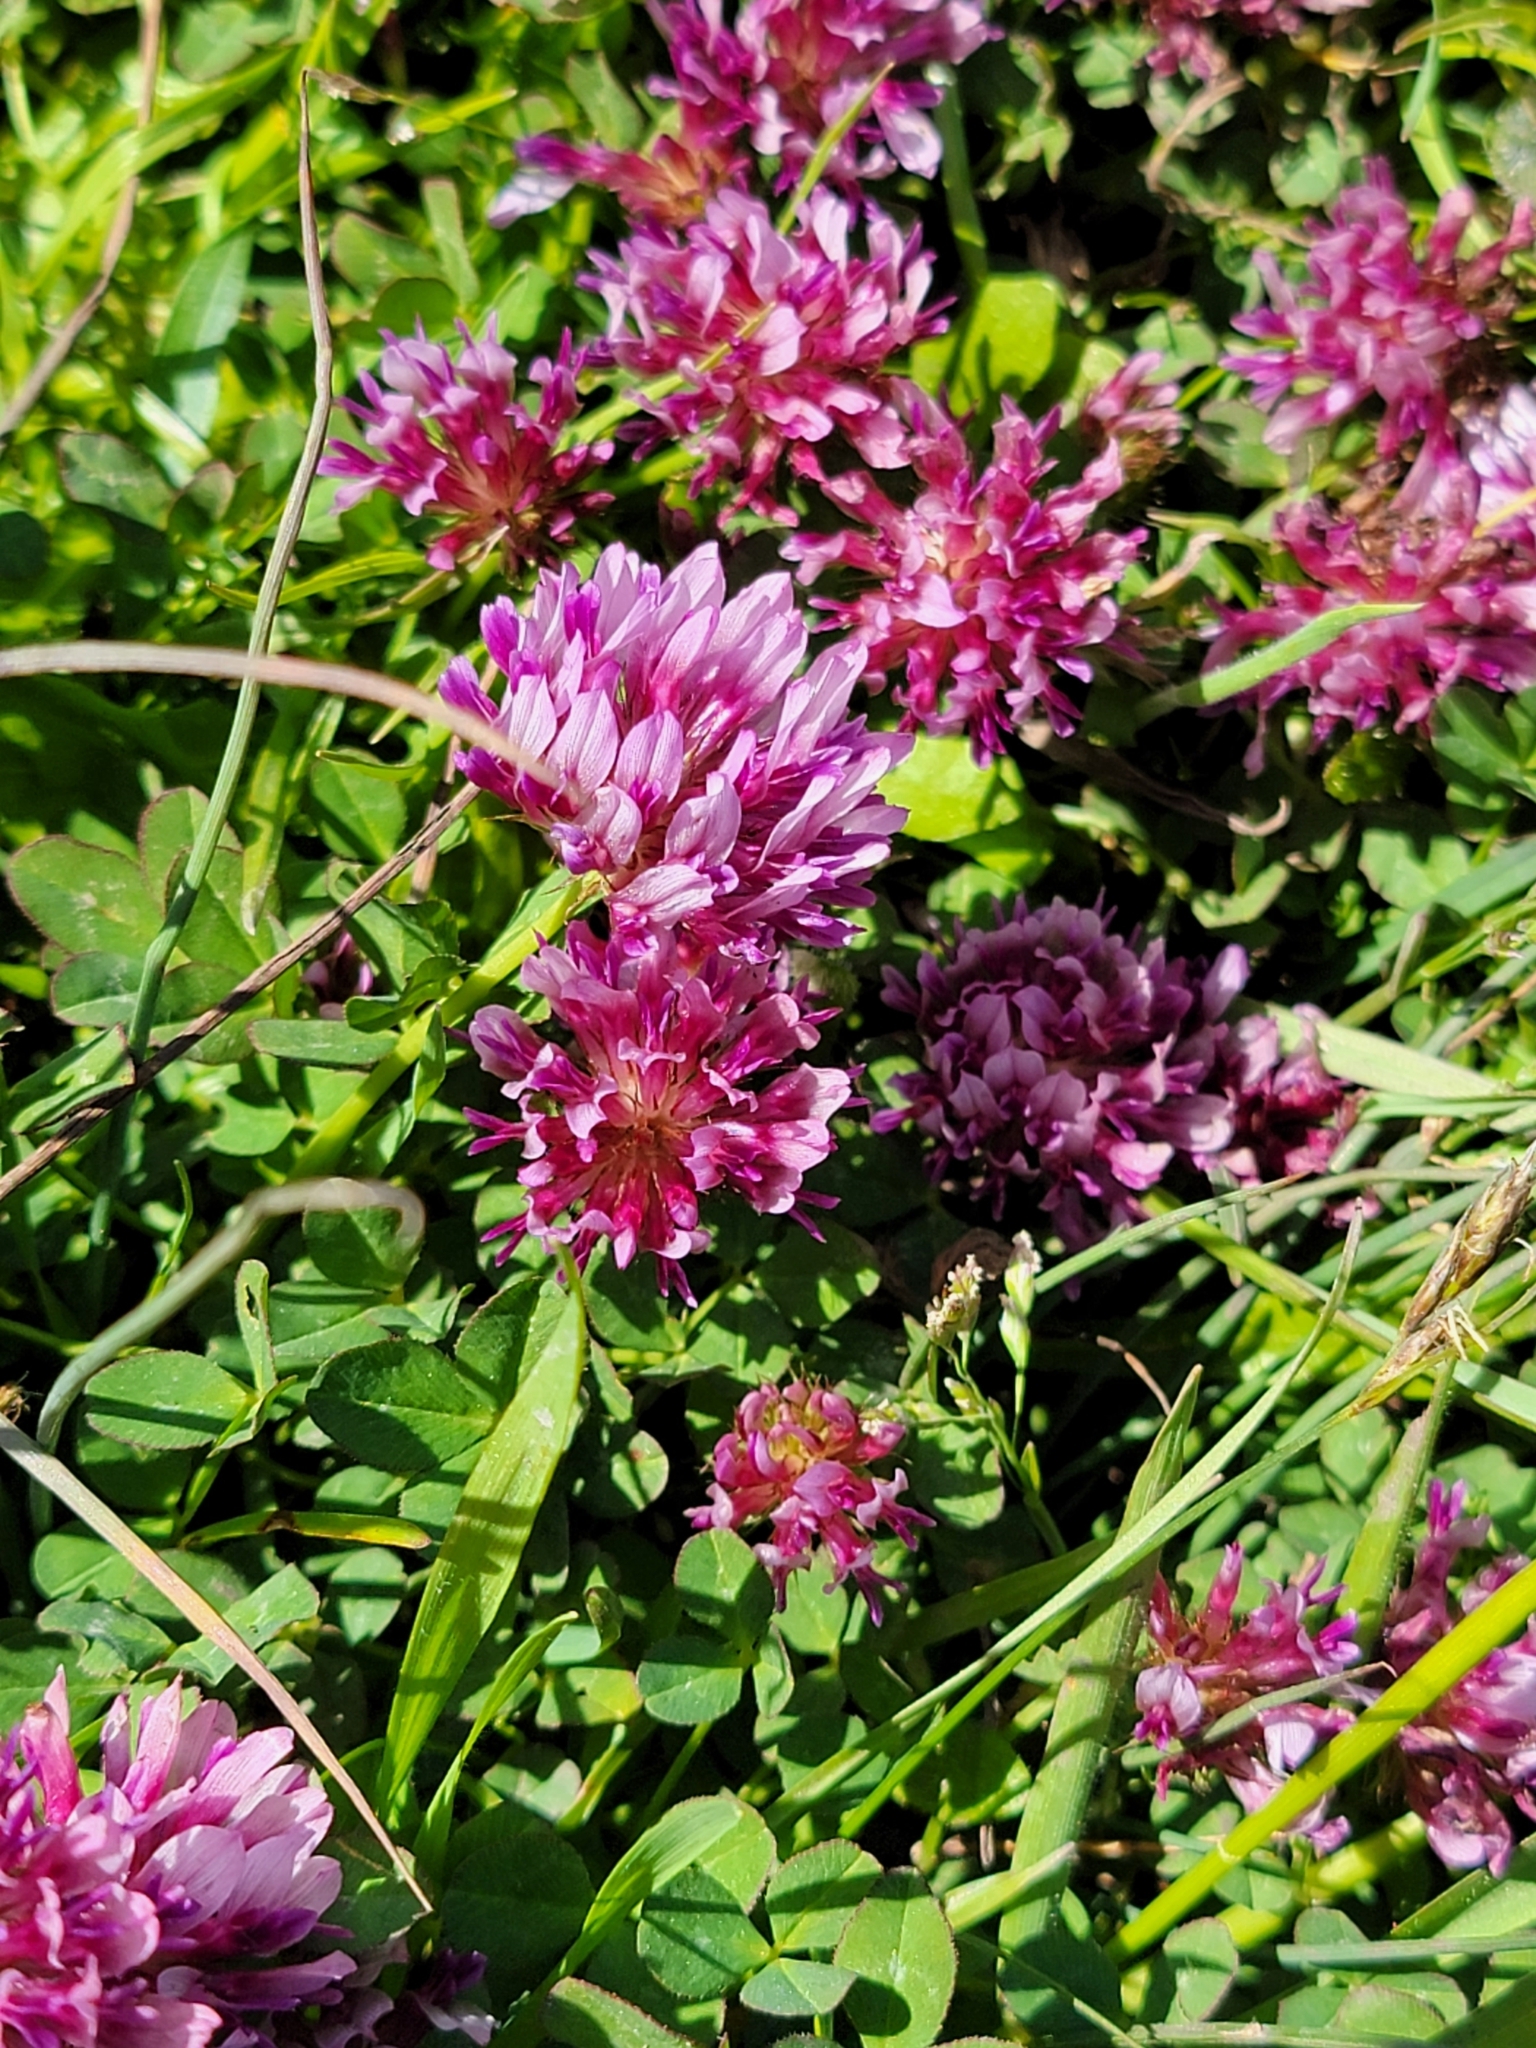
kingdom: Plantae
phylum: Tracheophyta
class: Magnoliopsida
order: Fabales
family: Fabaceae
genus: Trifolium
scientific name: Trifolium wormskioldii
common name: Springbank clover
